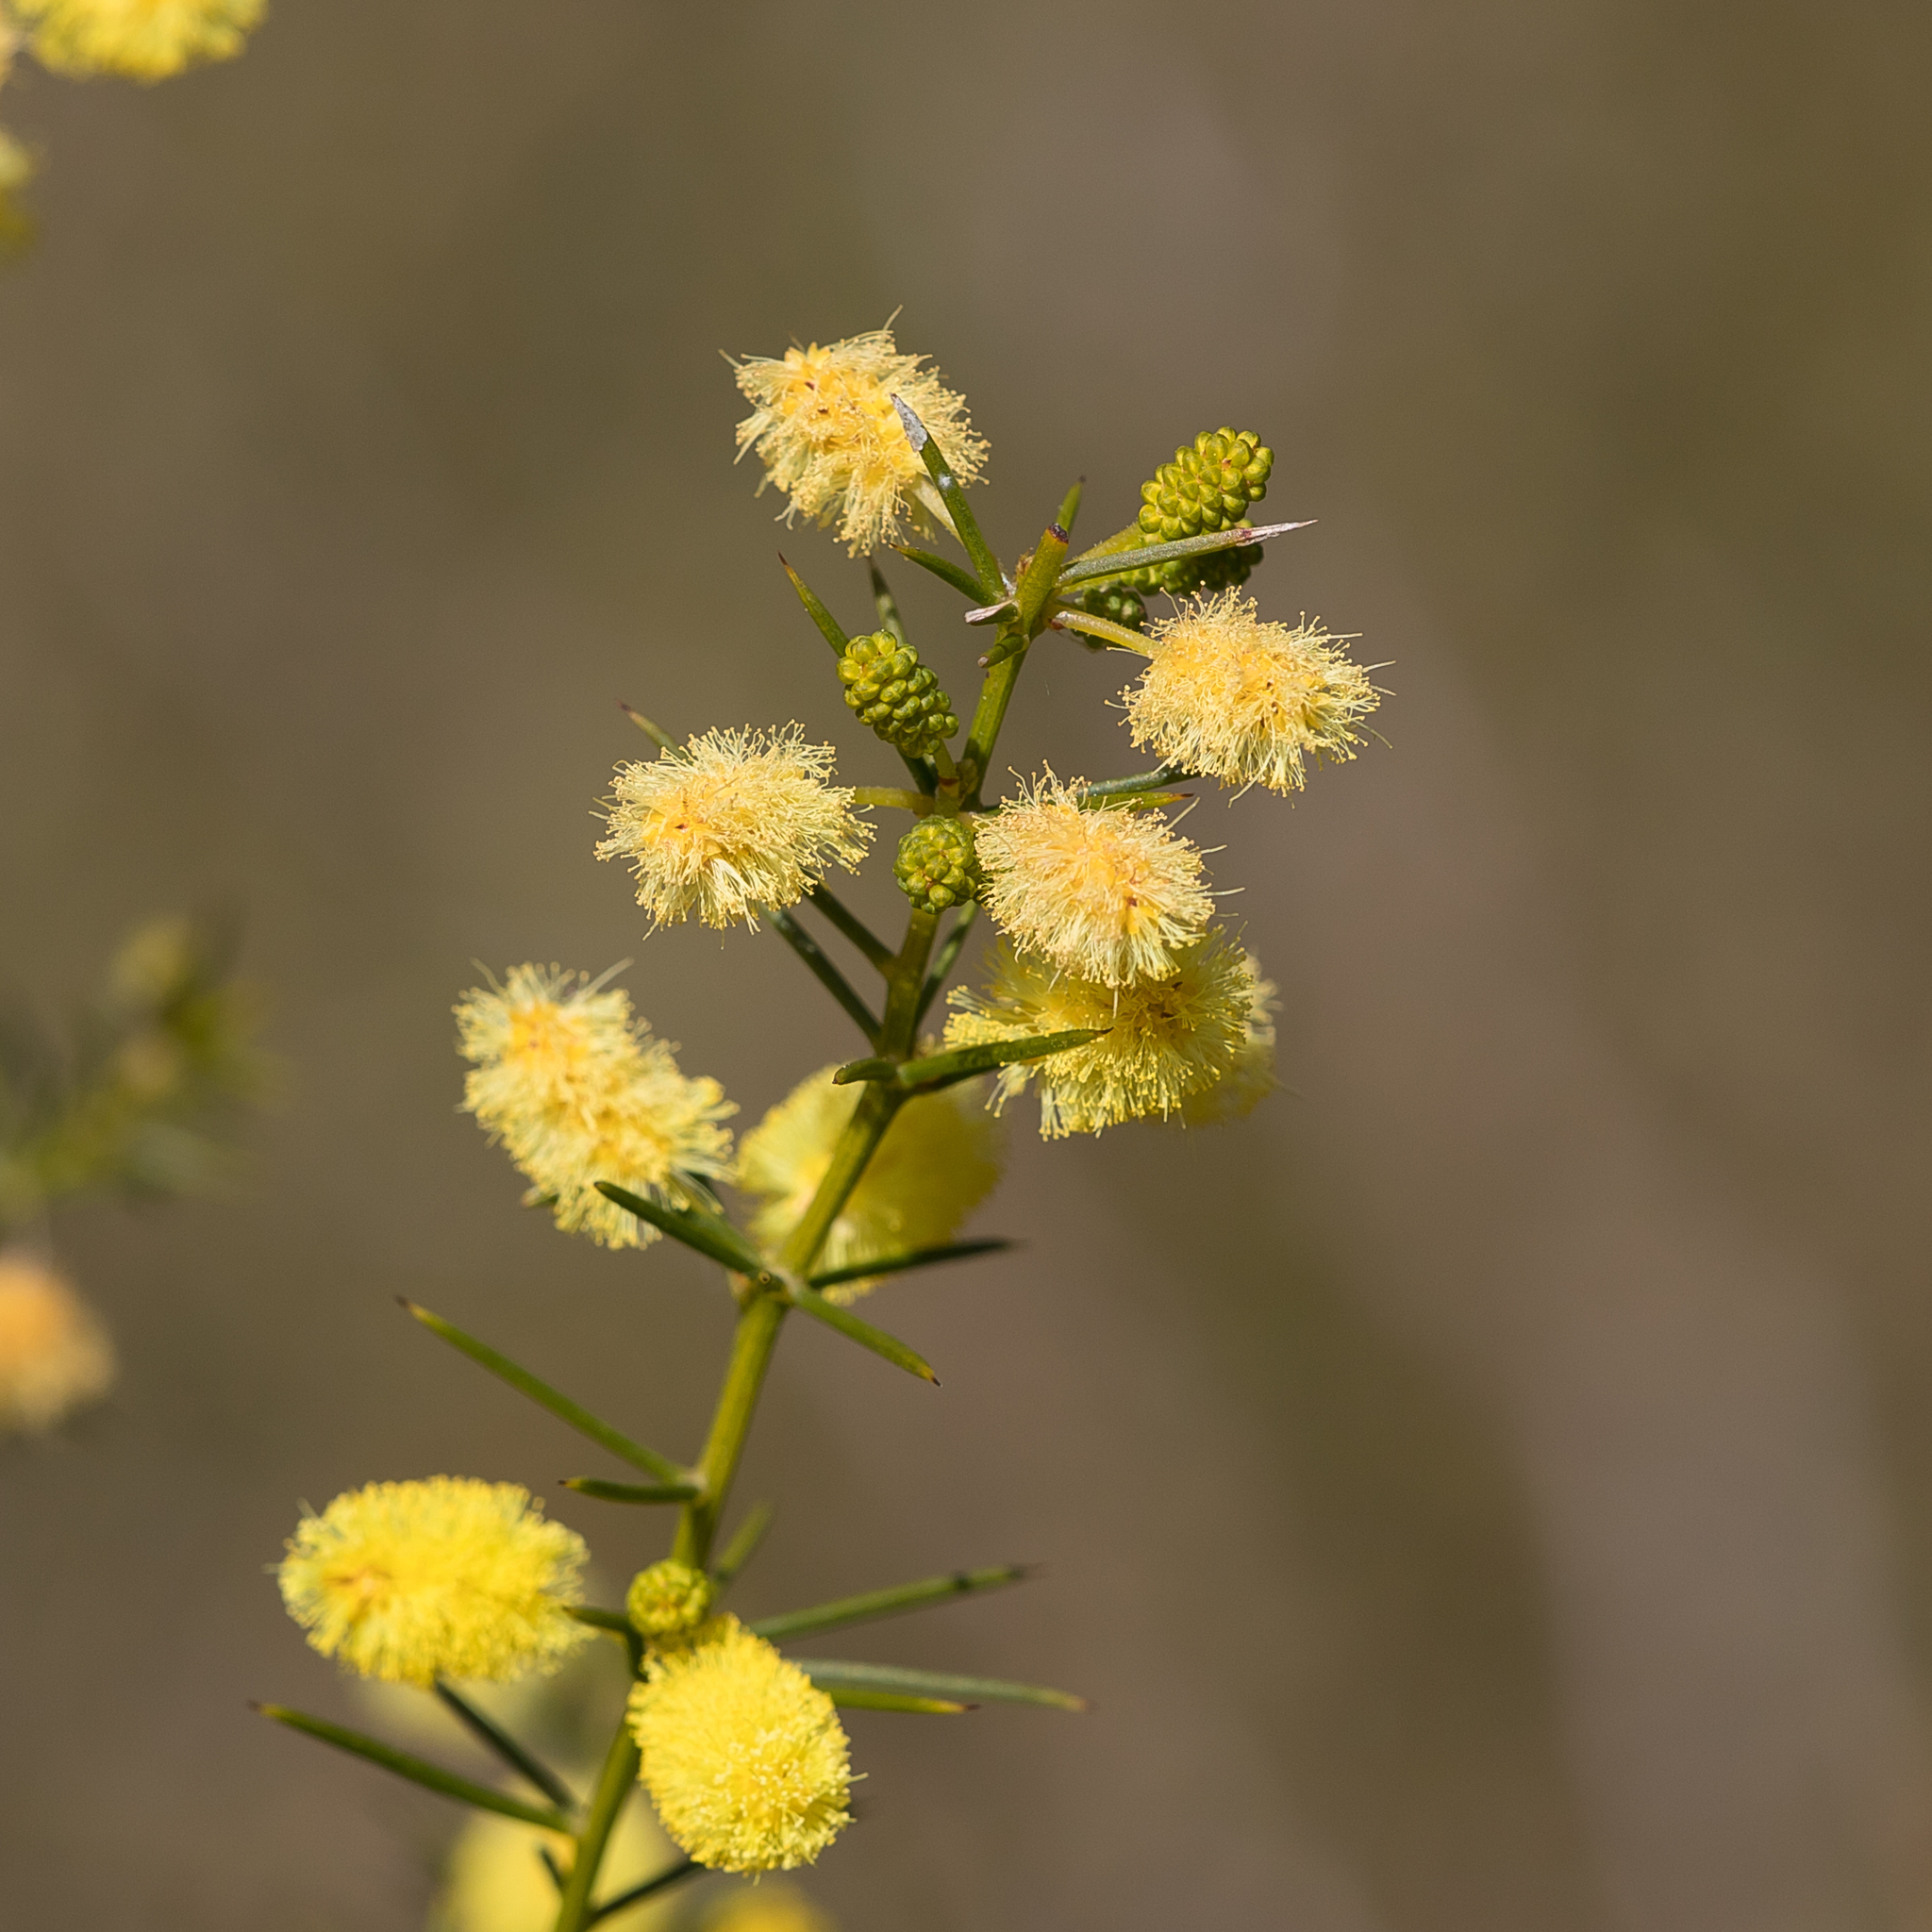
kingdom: Plantae
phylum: Tracheophyta
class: Magnoliopsida
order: Fabales
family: Fabaceae
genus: Acacia
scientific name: Acacia verticillata
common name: Prickly moses
